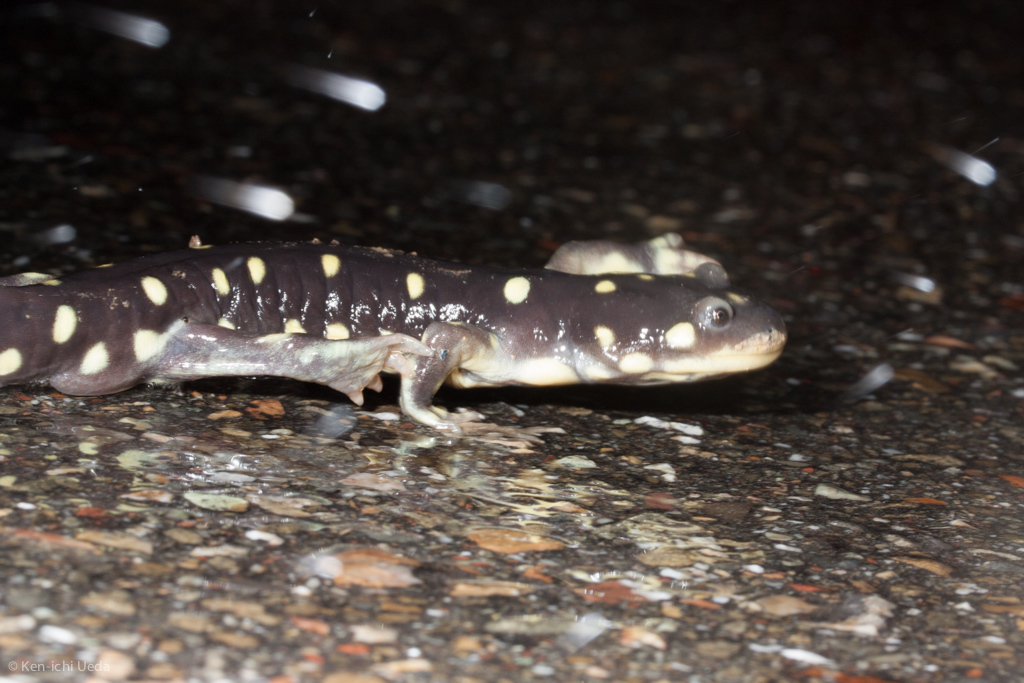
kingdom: Animalia
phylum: Chordata
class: Amphibia
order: Caudata
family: Ambystomatidae
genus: Ambystoma
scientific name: Ambystoma californiense
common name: California tiger salamander
